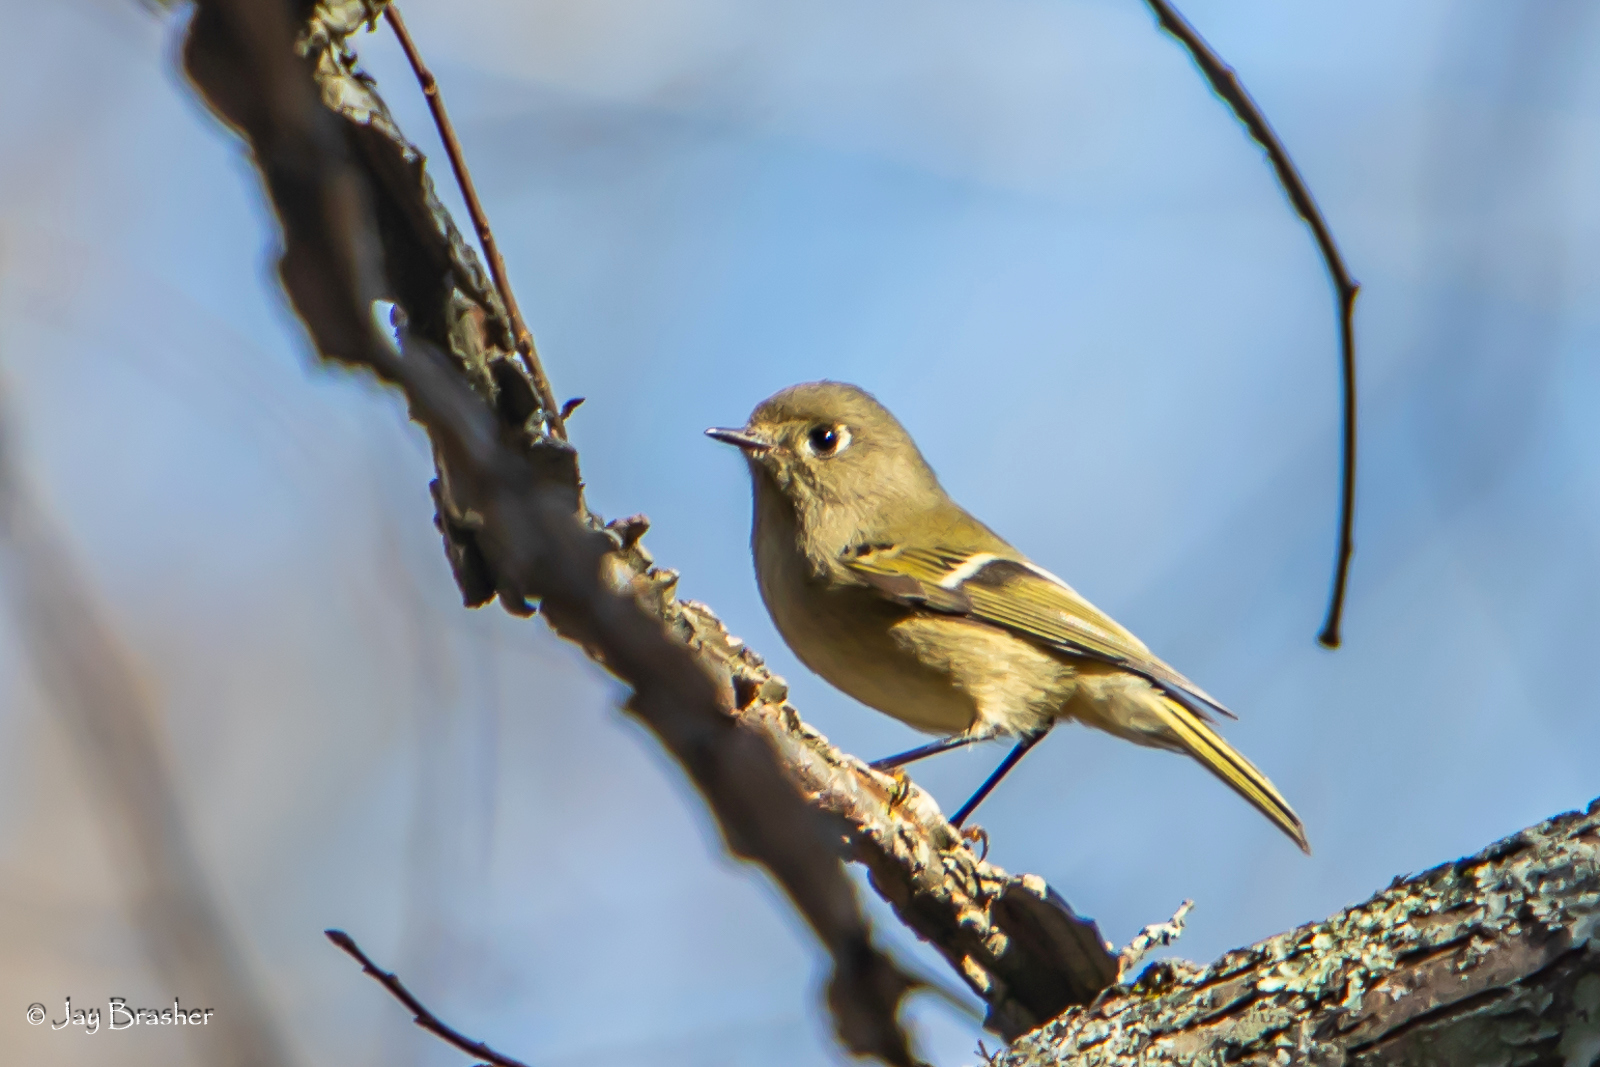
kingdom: Animalia
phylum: Chordata
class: Aves
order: Passeriformes
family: Regulidae
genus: Regulus
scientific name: Regulus calendula
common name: Ruby-crowned kinglet
